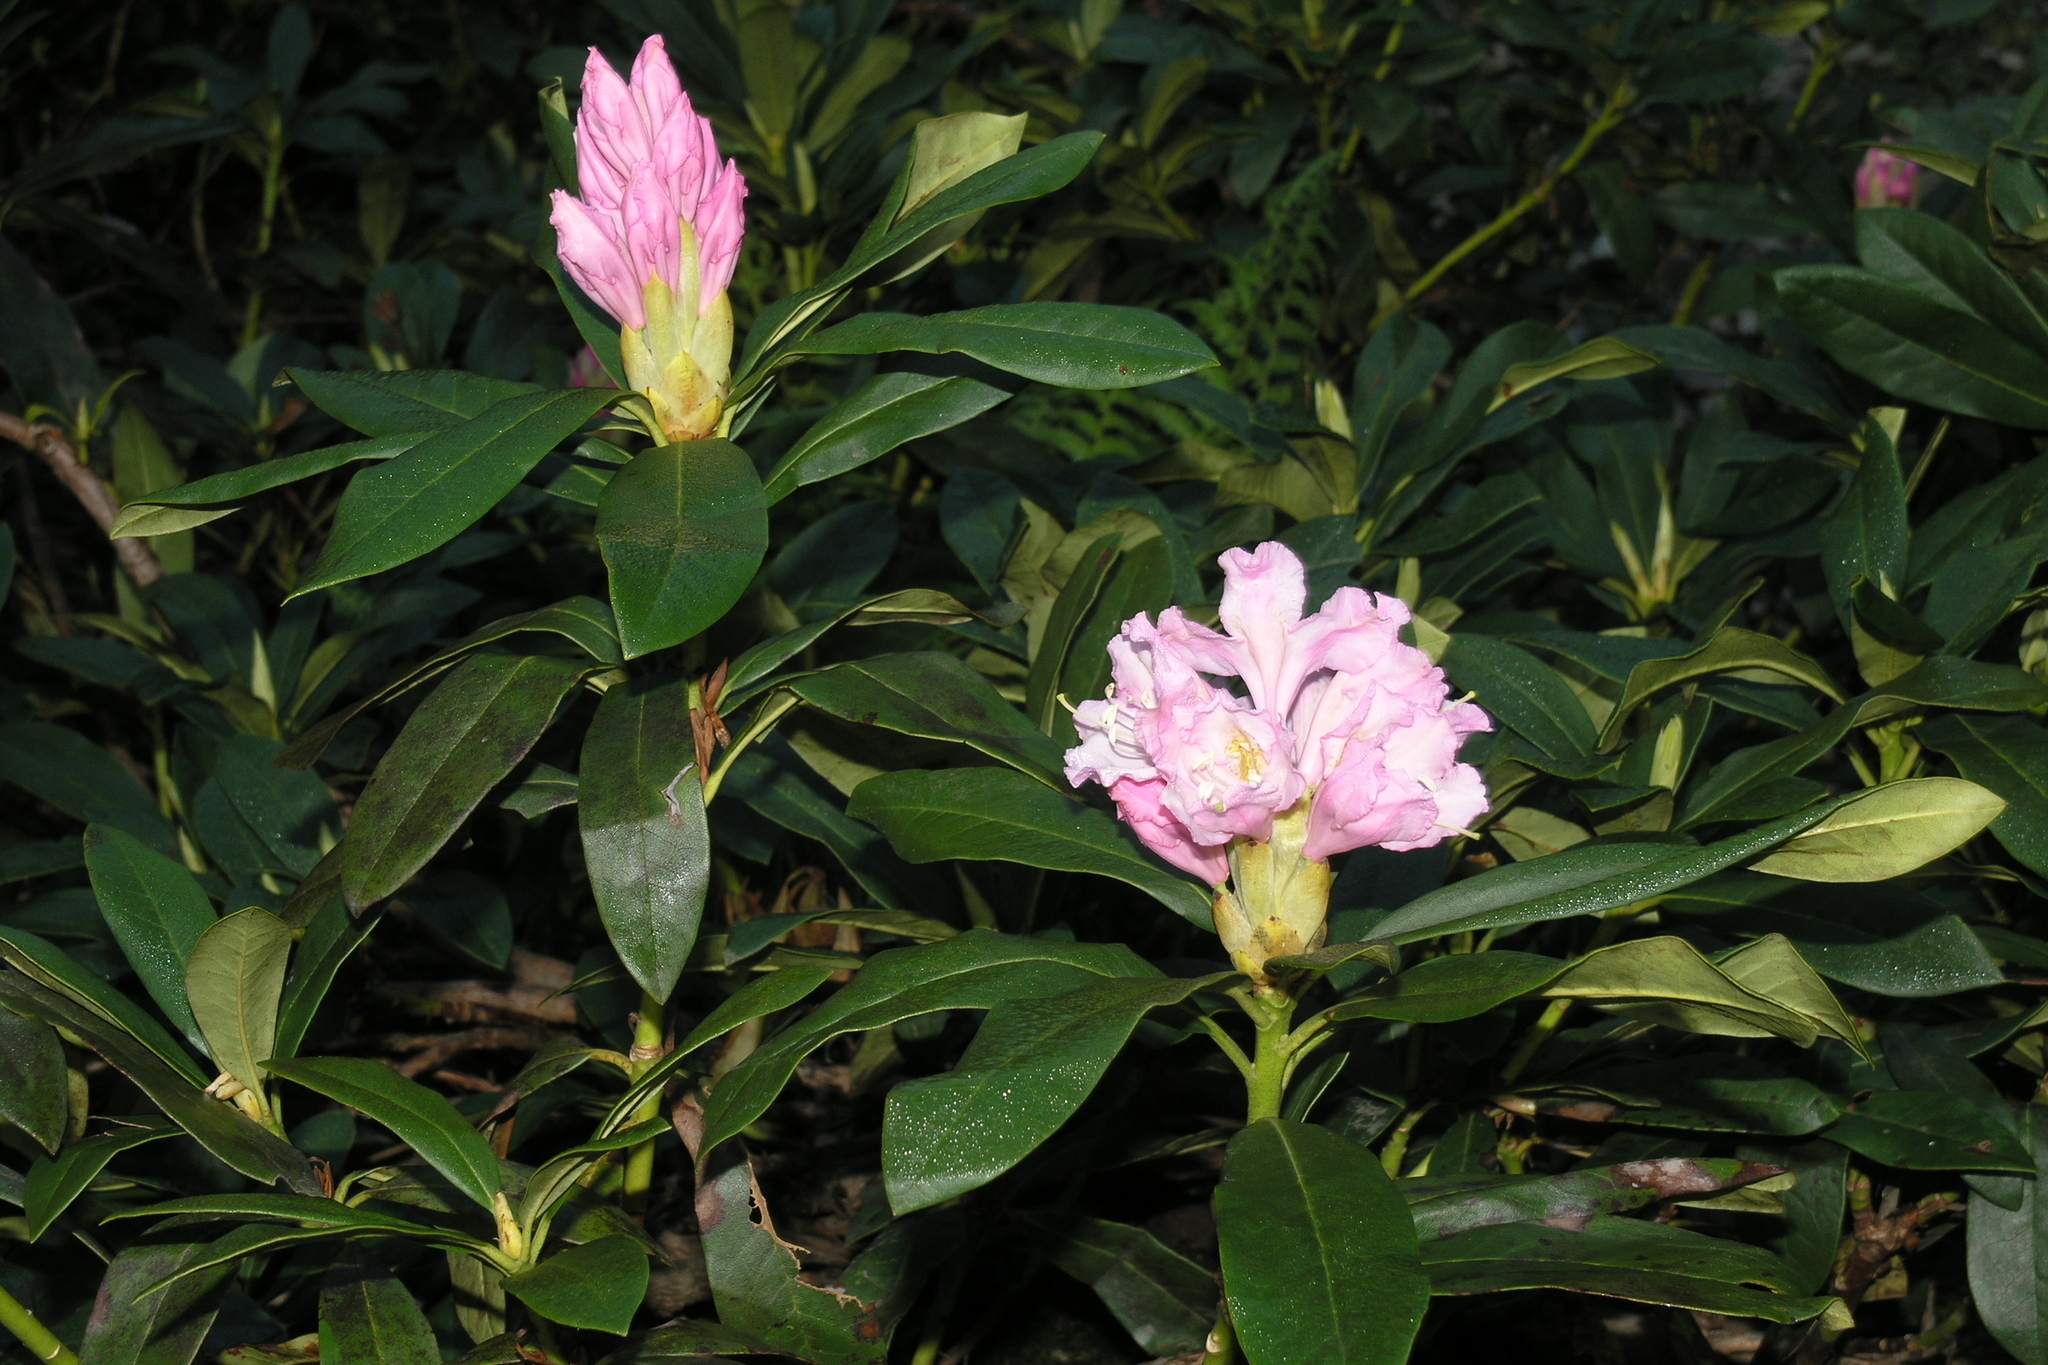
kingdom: Plantae
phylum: Tracheophyta
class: Magnoliopsida
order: Ericales
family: Ericaceae
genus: Rhododendron
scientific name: Rhododendron ponticum
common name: Rhododendron
